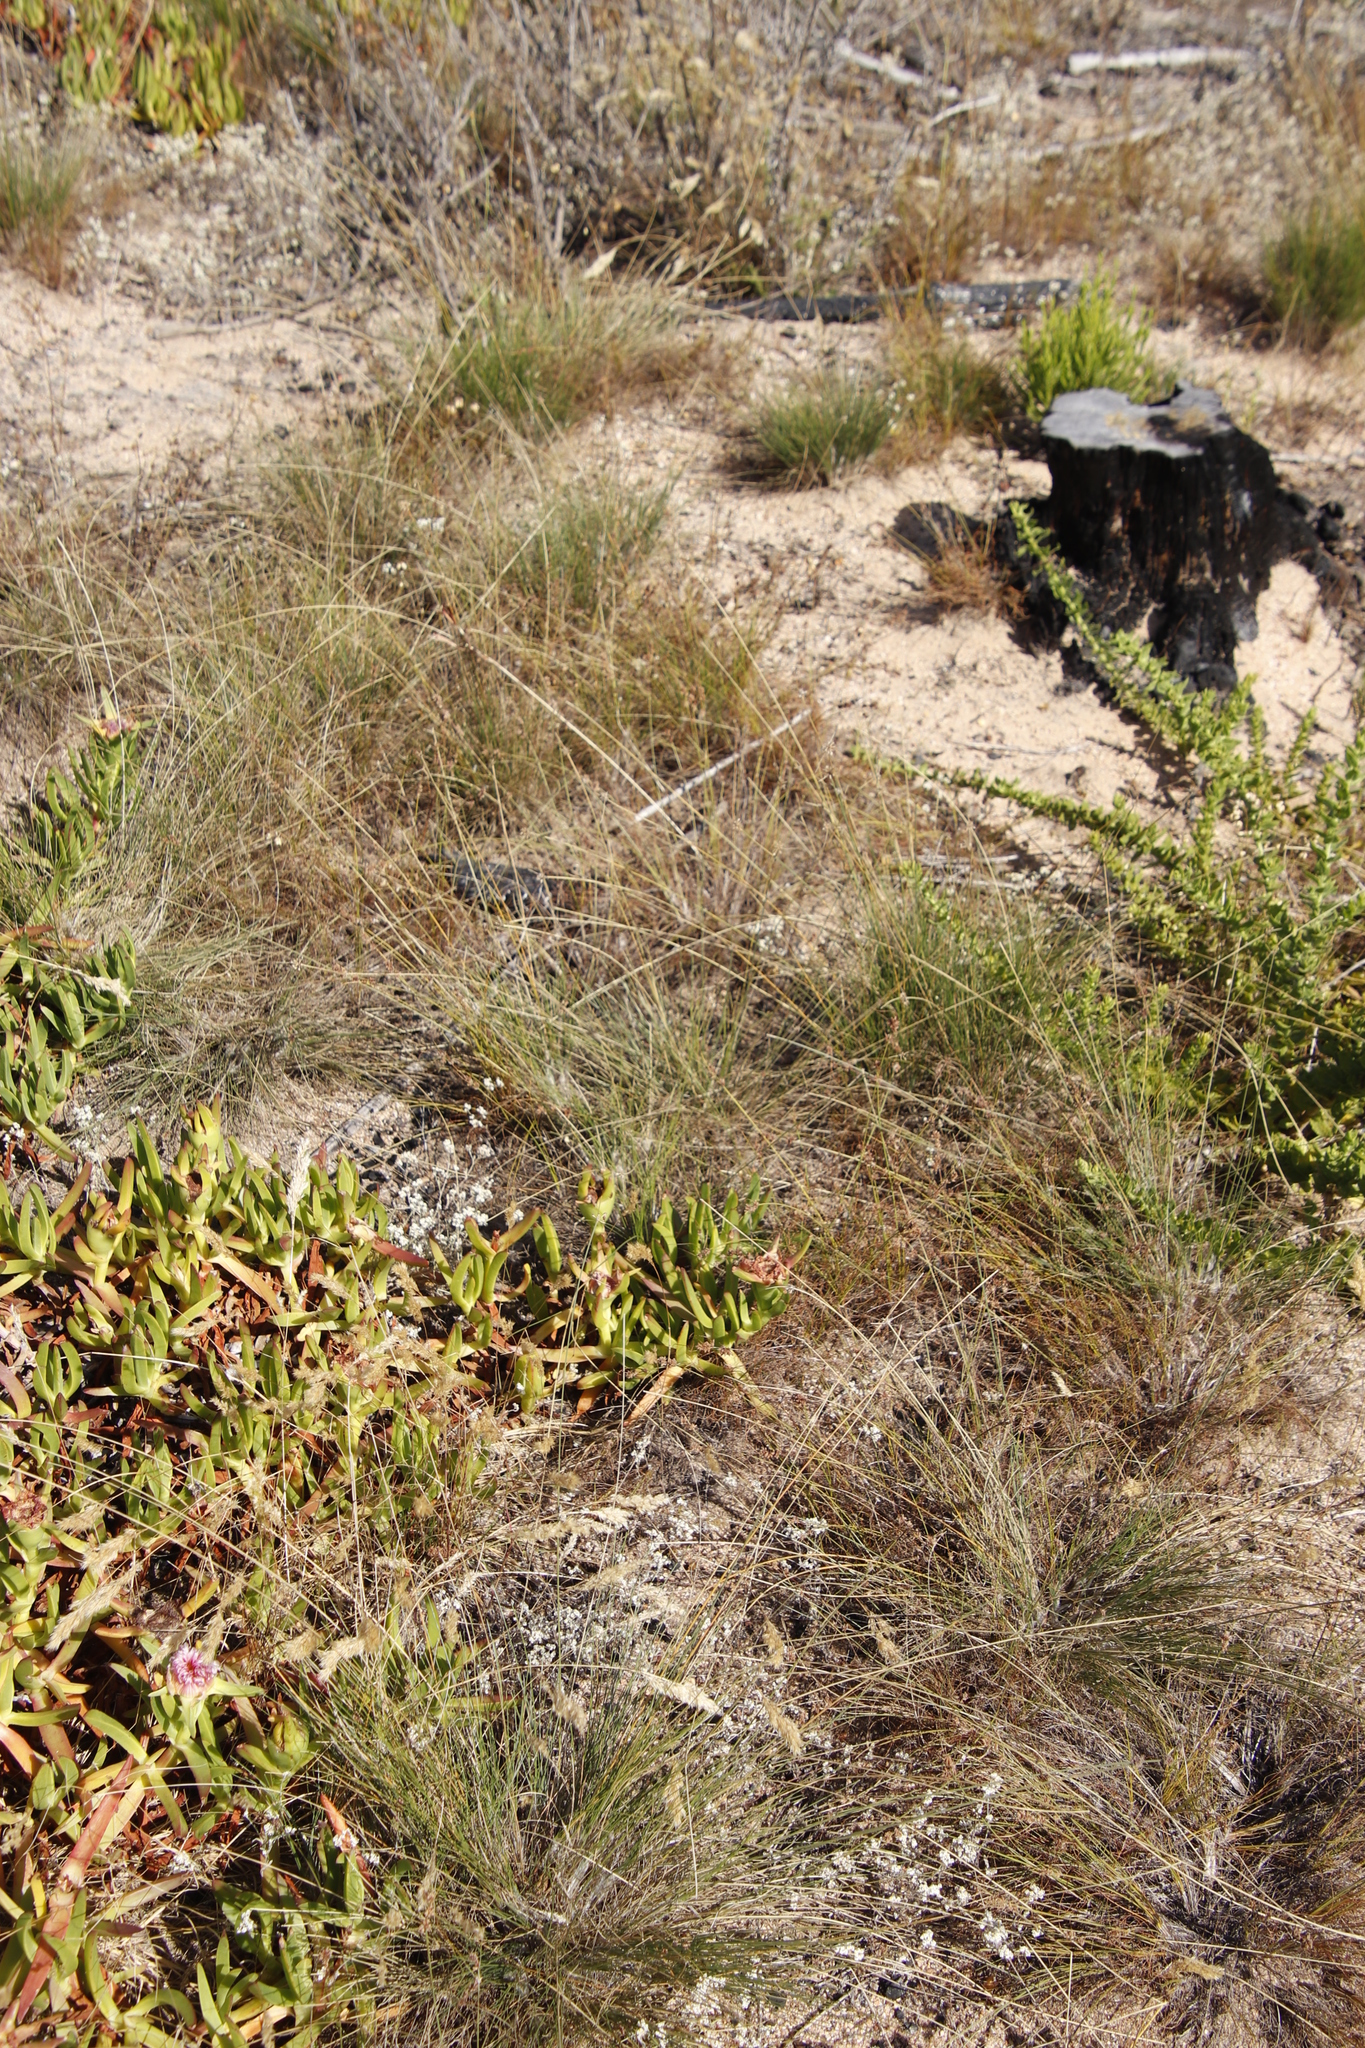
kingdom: Plantae
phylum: Tracheophyta
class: Liliopsida
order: Poales
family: Cyperaceae
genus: Ficinia
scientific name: Ficinia bulbosa
